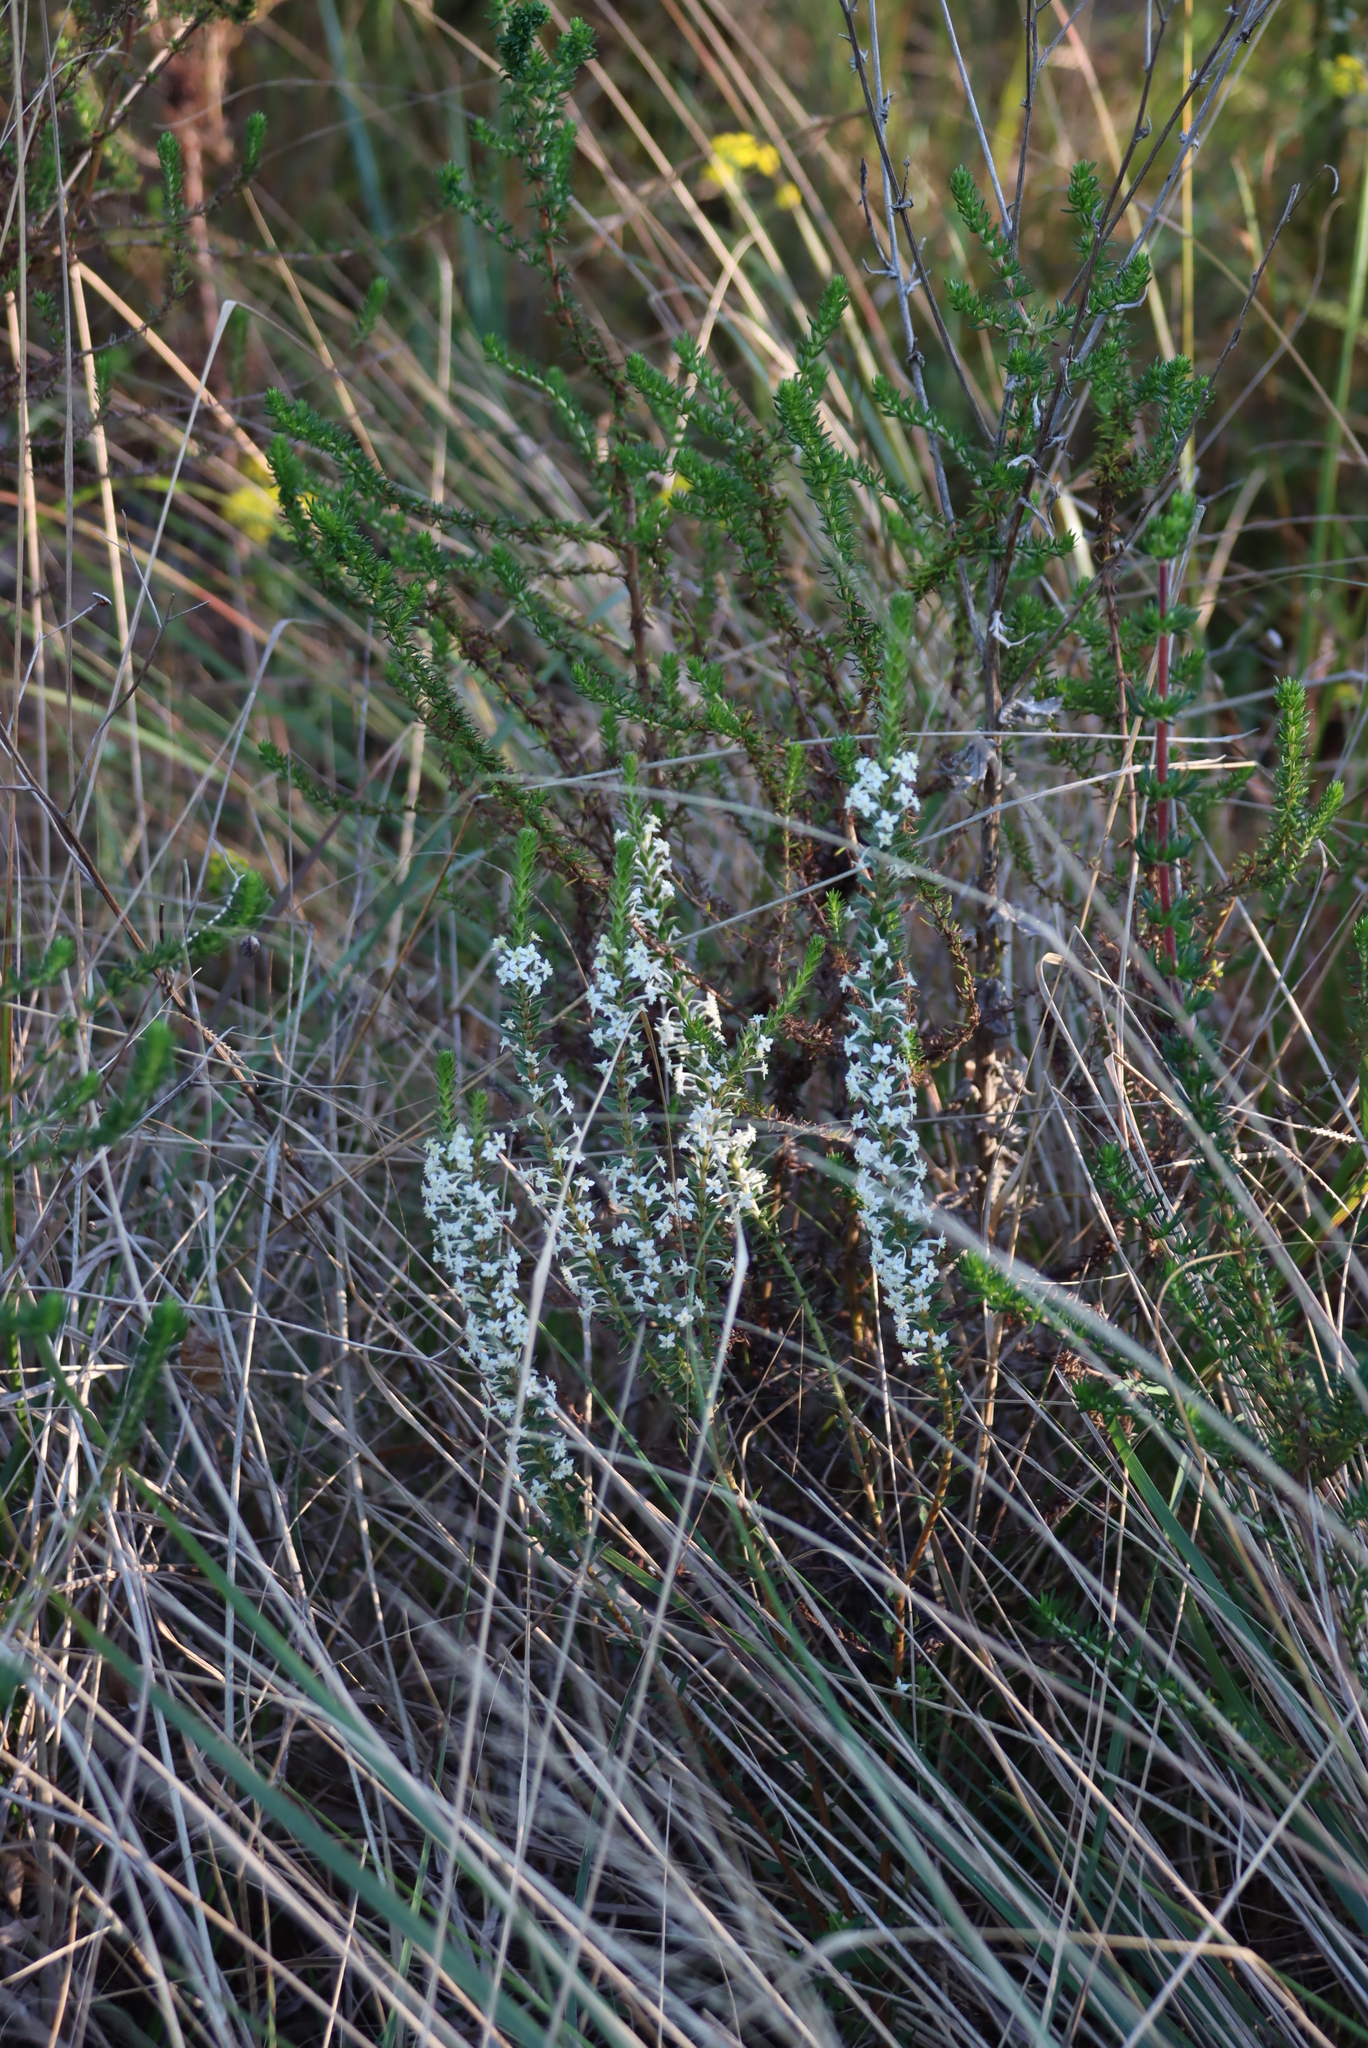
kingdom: Plantae
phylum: Tracheophyta
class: Magnoliopsida
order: Malvales
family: Thymelaeaceae
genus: Struthiola
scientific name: Struthiola hirsuta
